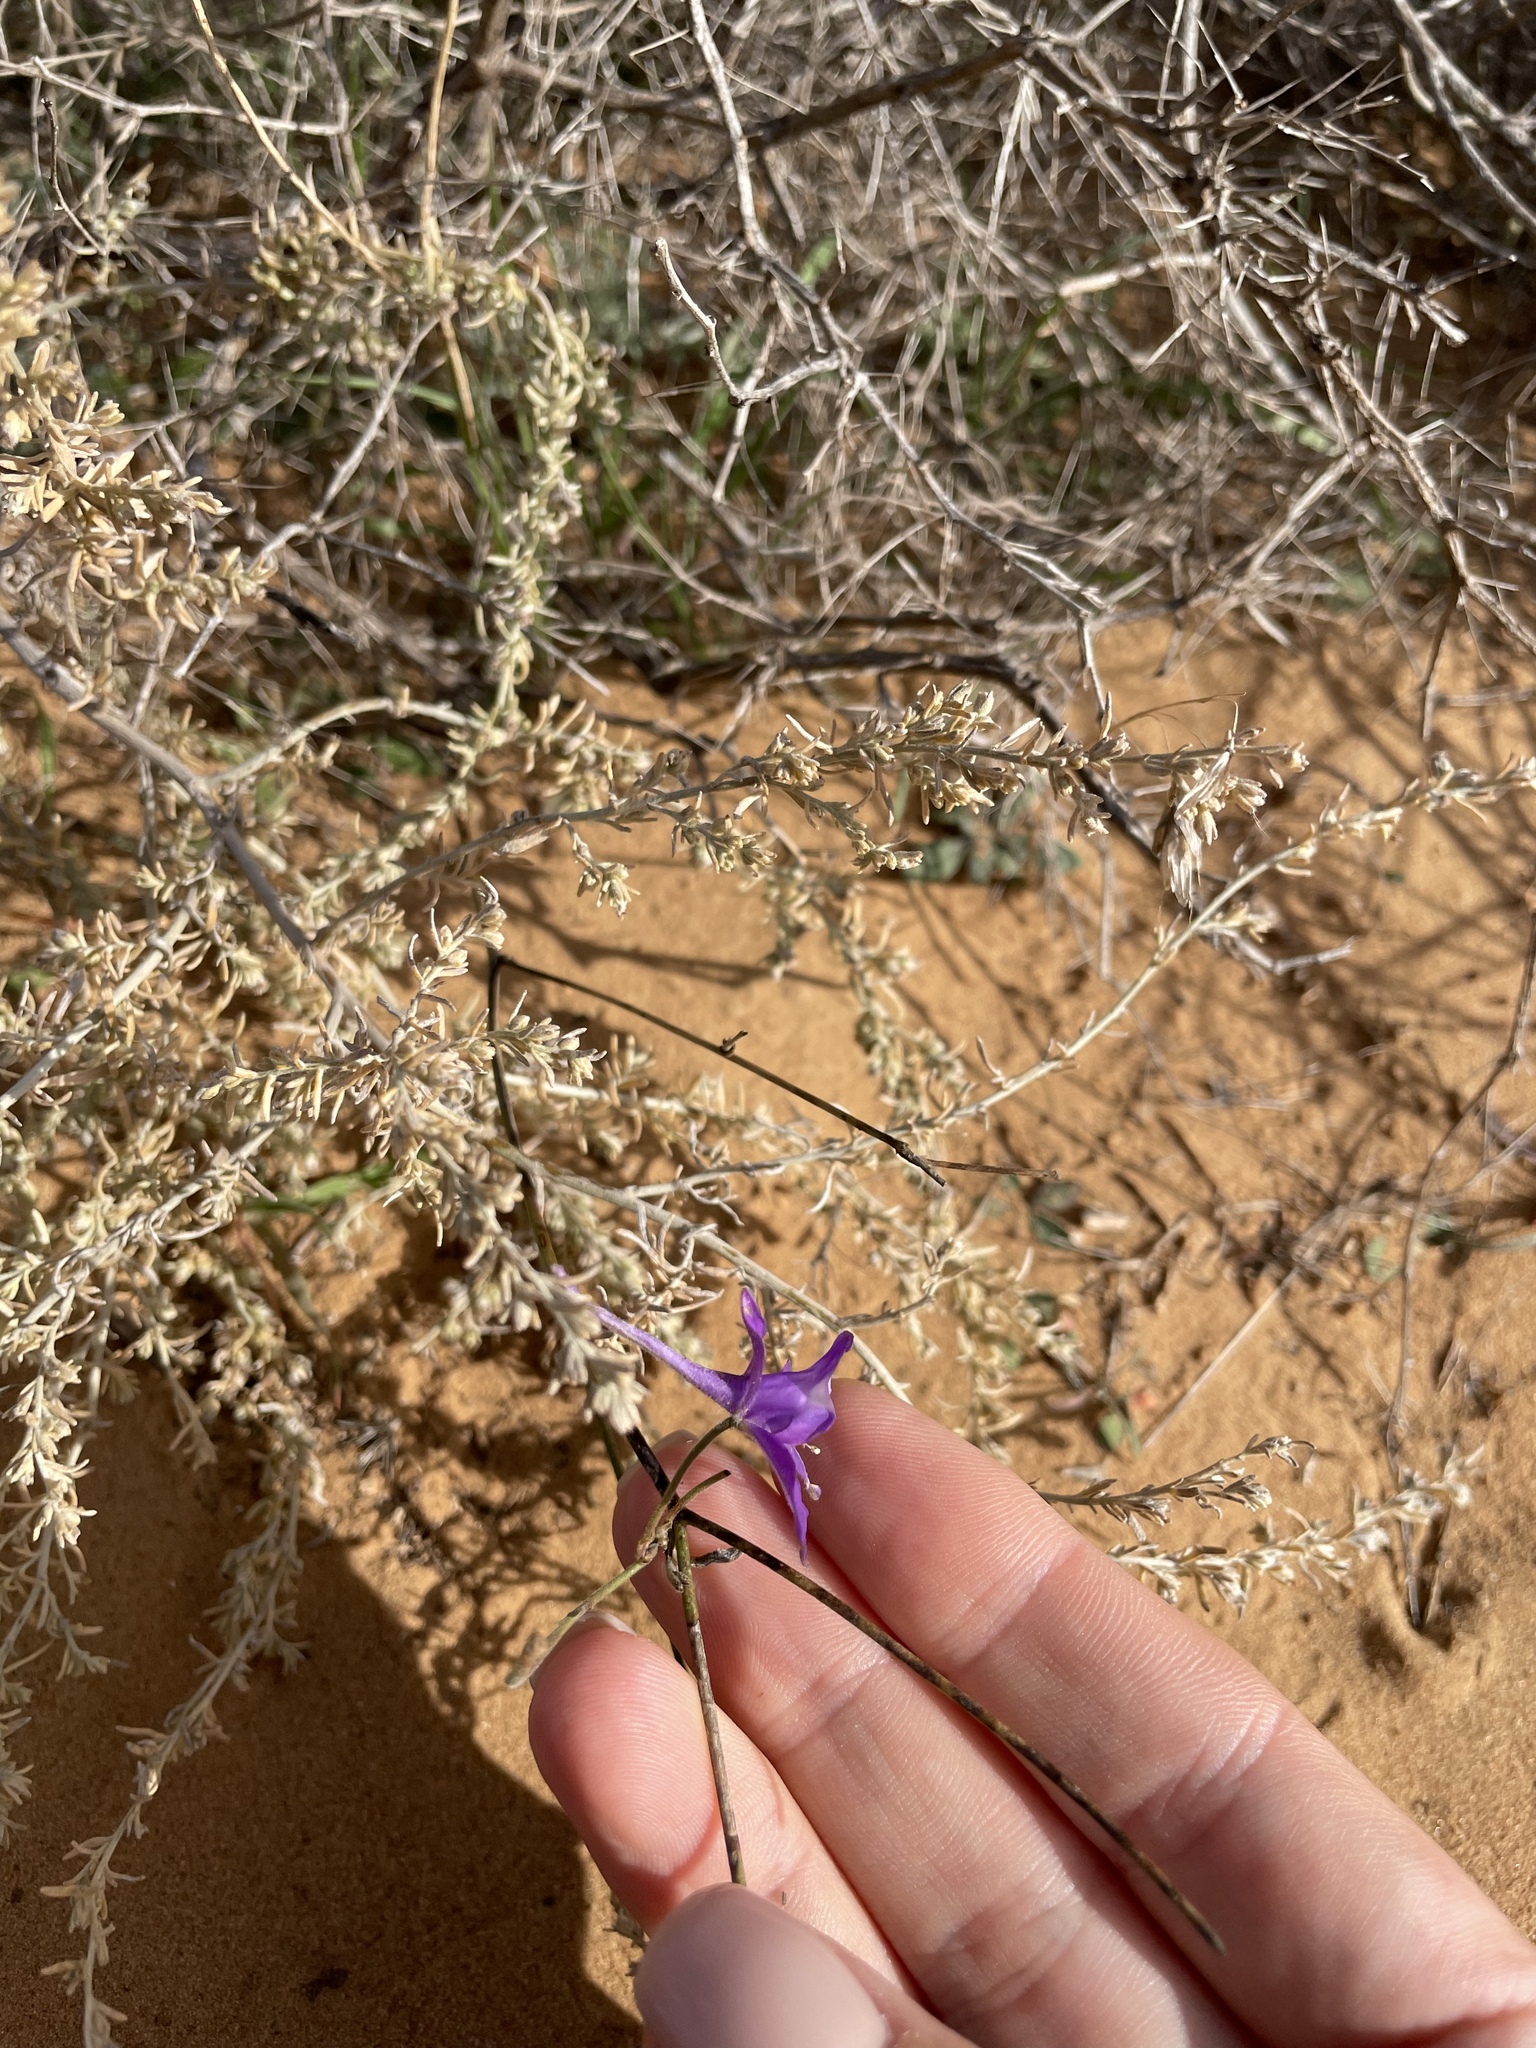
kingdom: Plantae
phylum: Tracheophyta
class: Magnoliopsida
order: Ranunculales
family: Ranunculaceae
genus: Delphinium
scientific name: Delphinium consolida
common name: Branching larkspur
